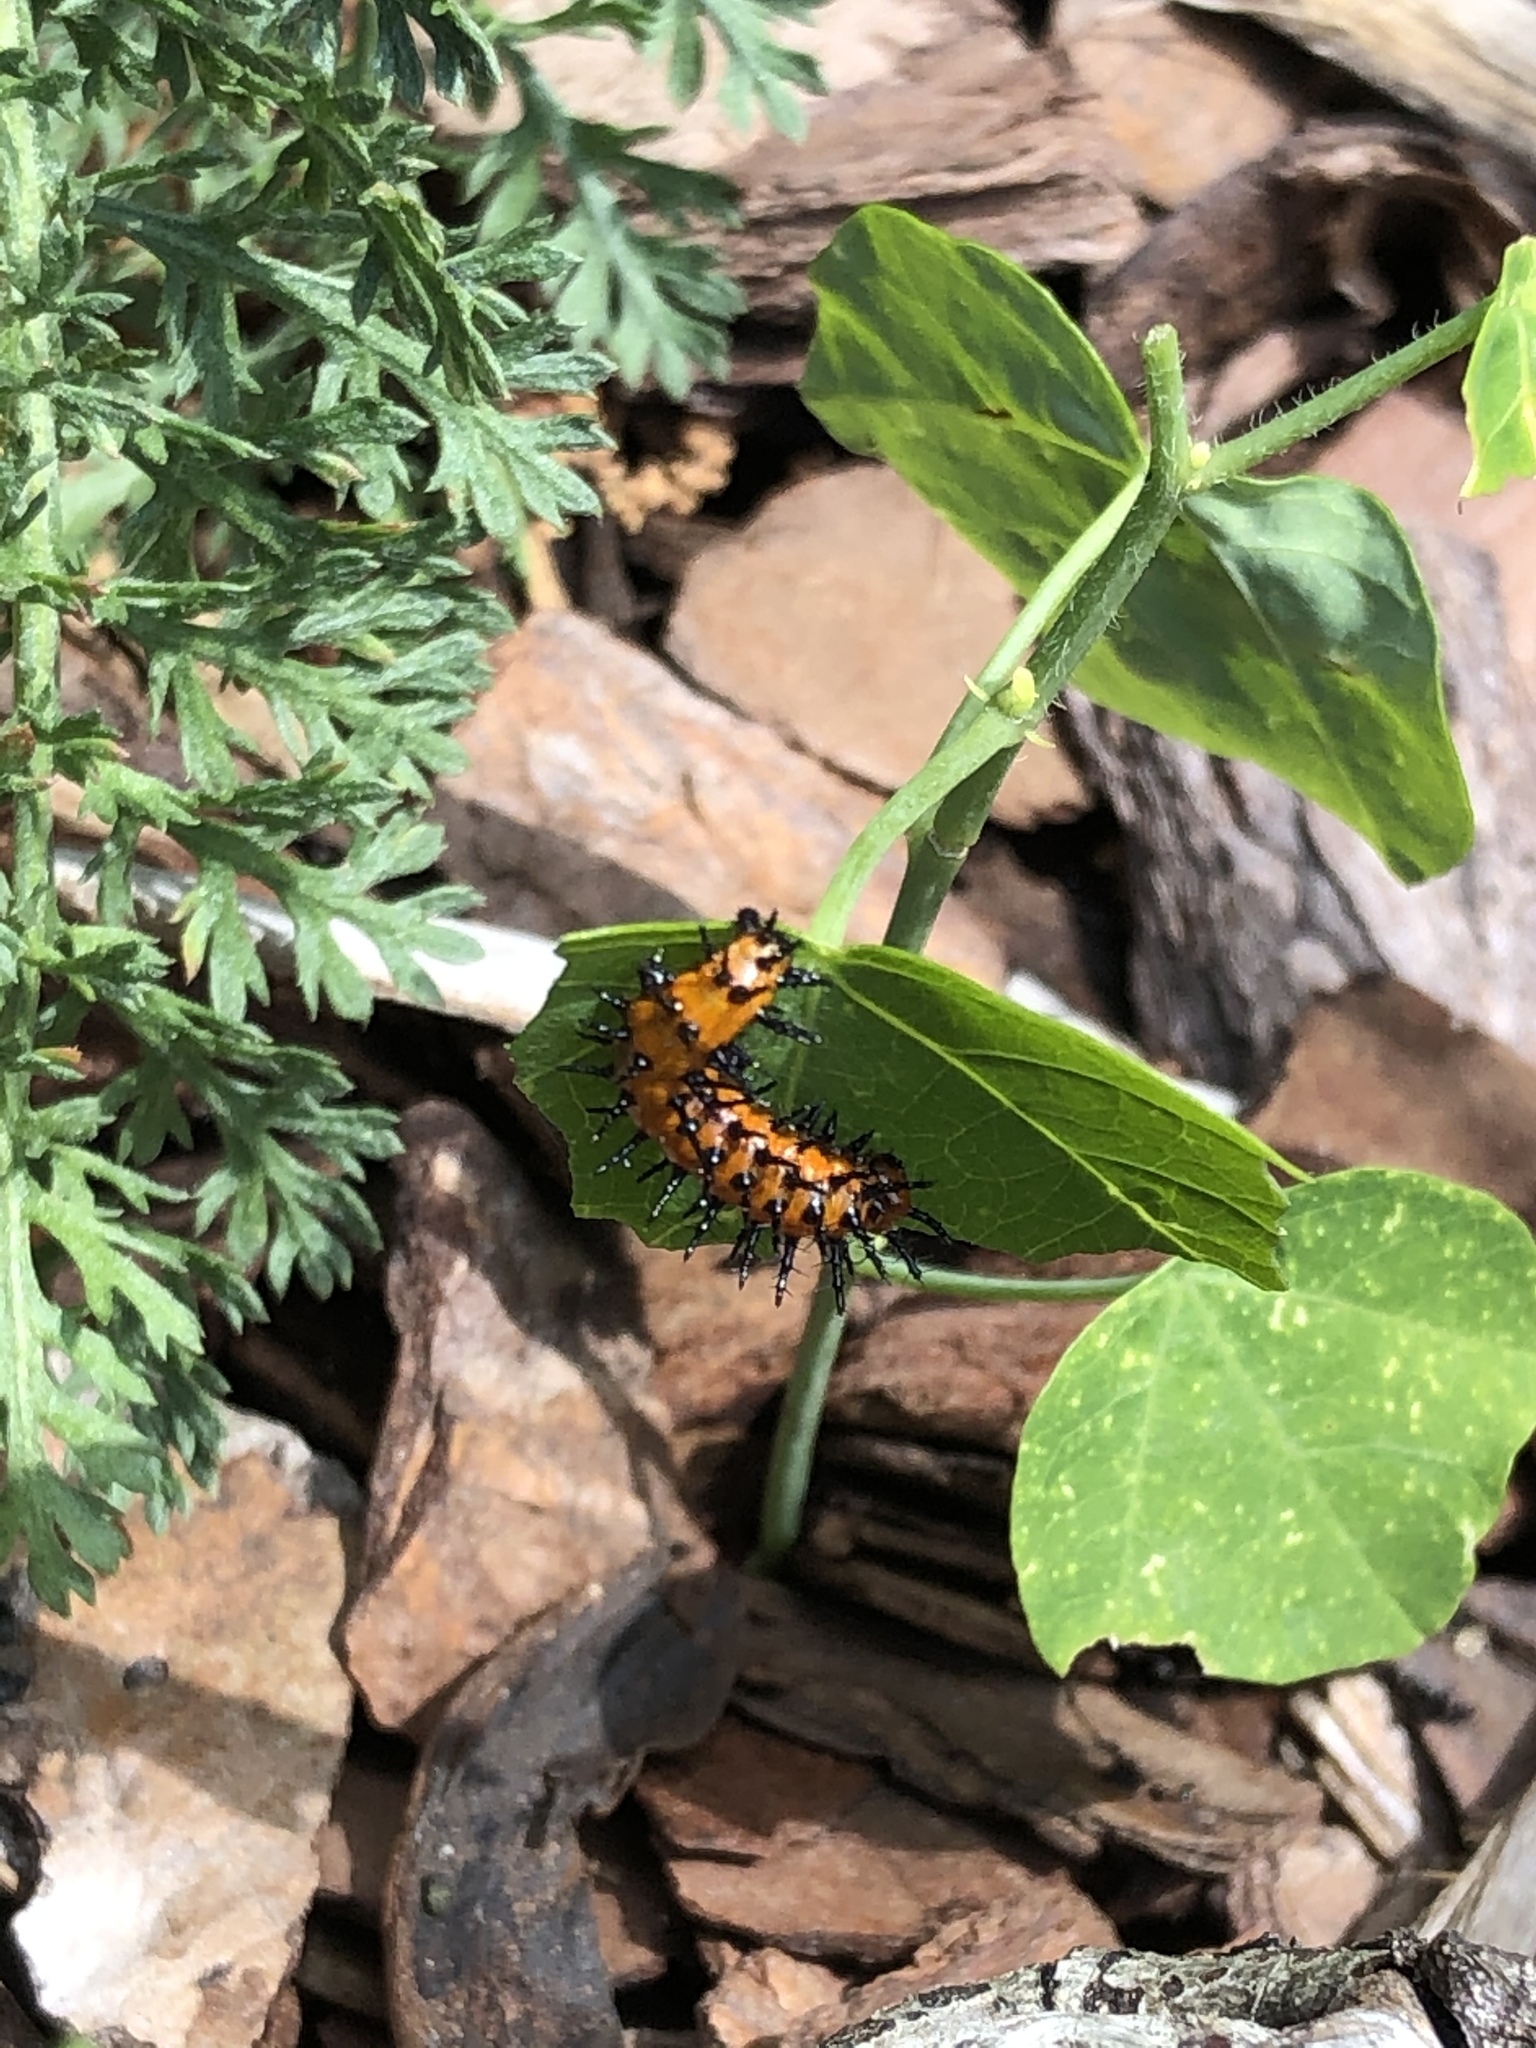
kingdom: Animalia
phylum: Arthropoda
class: Insecta
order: Lepidoptera
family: Nymphalidae
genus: Dione
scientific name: Dione vanillae
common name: Gulf fritillary
